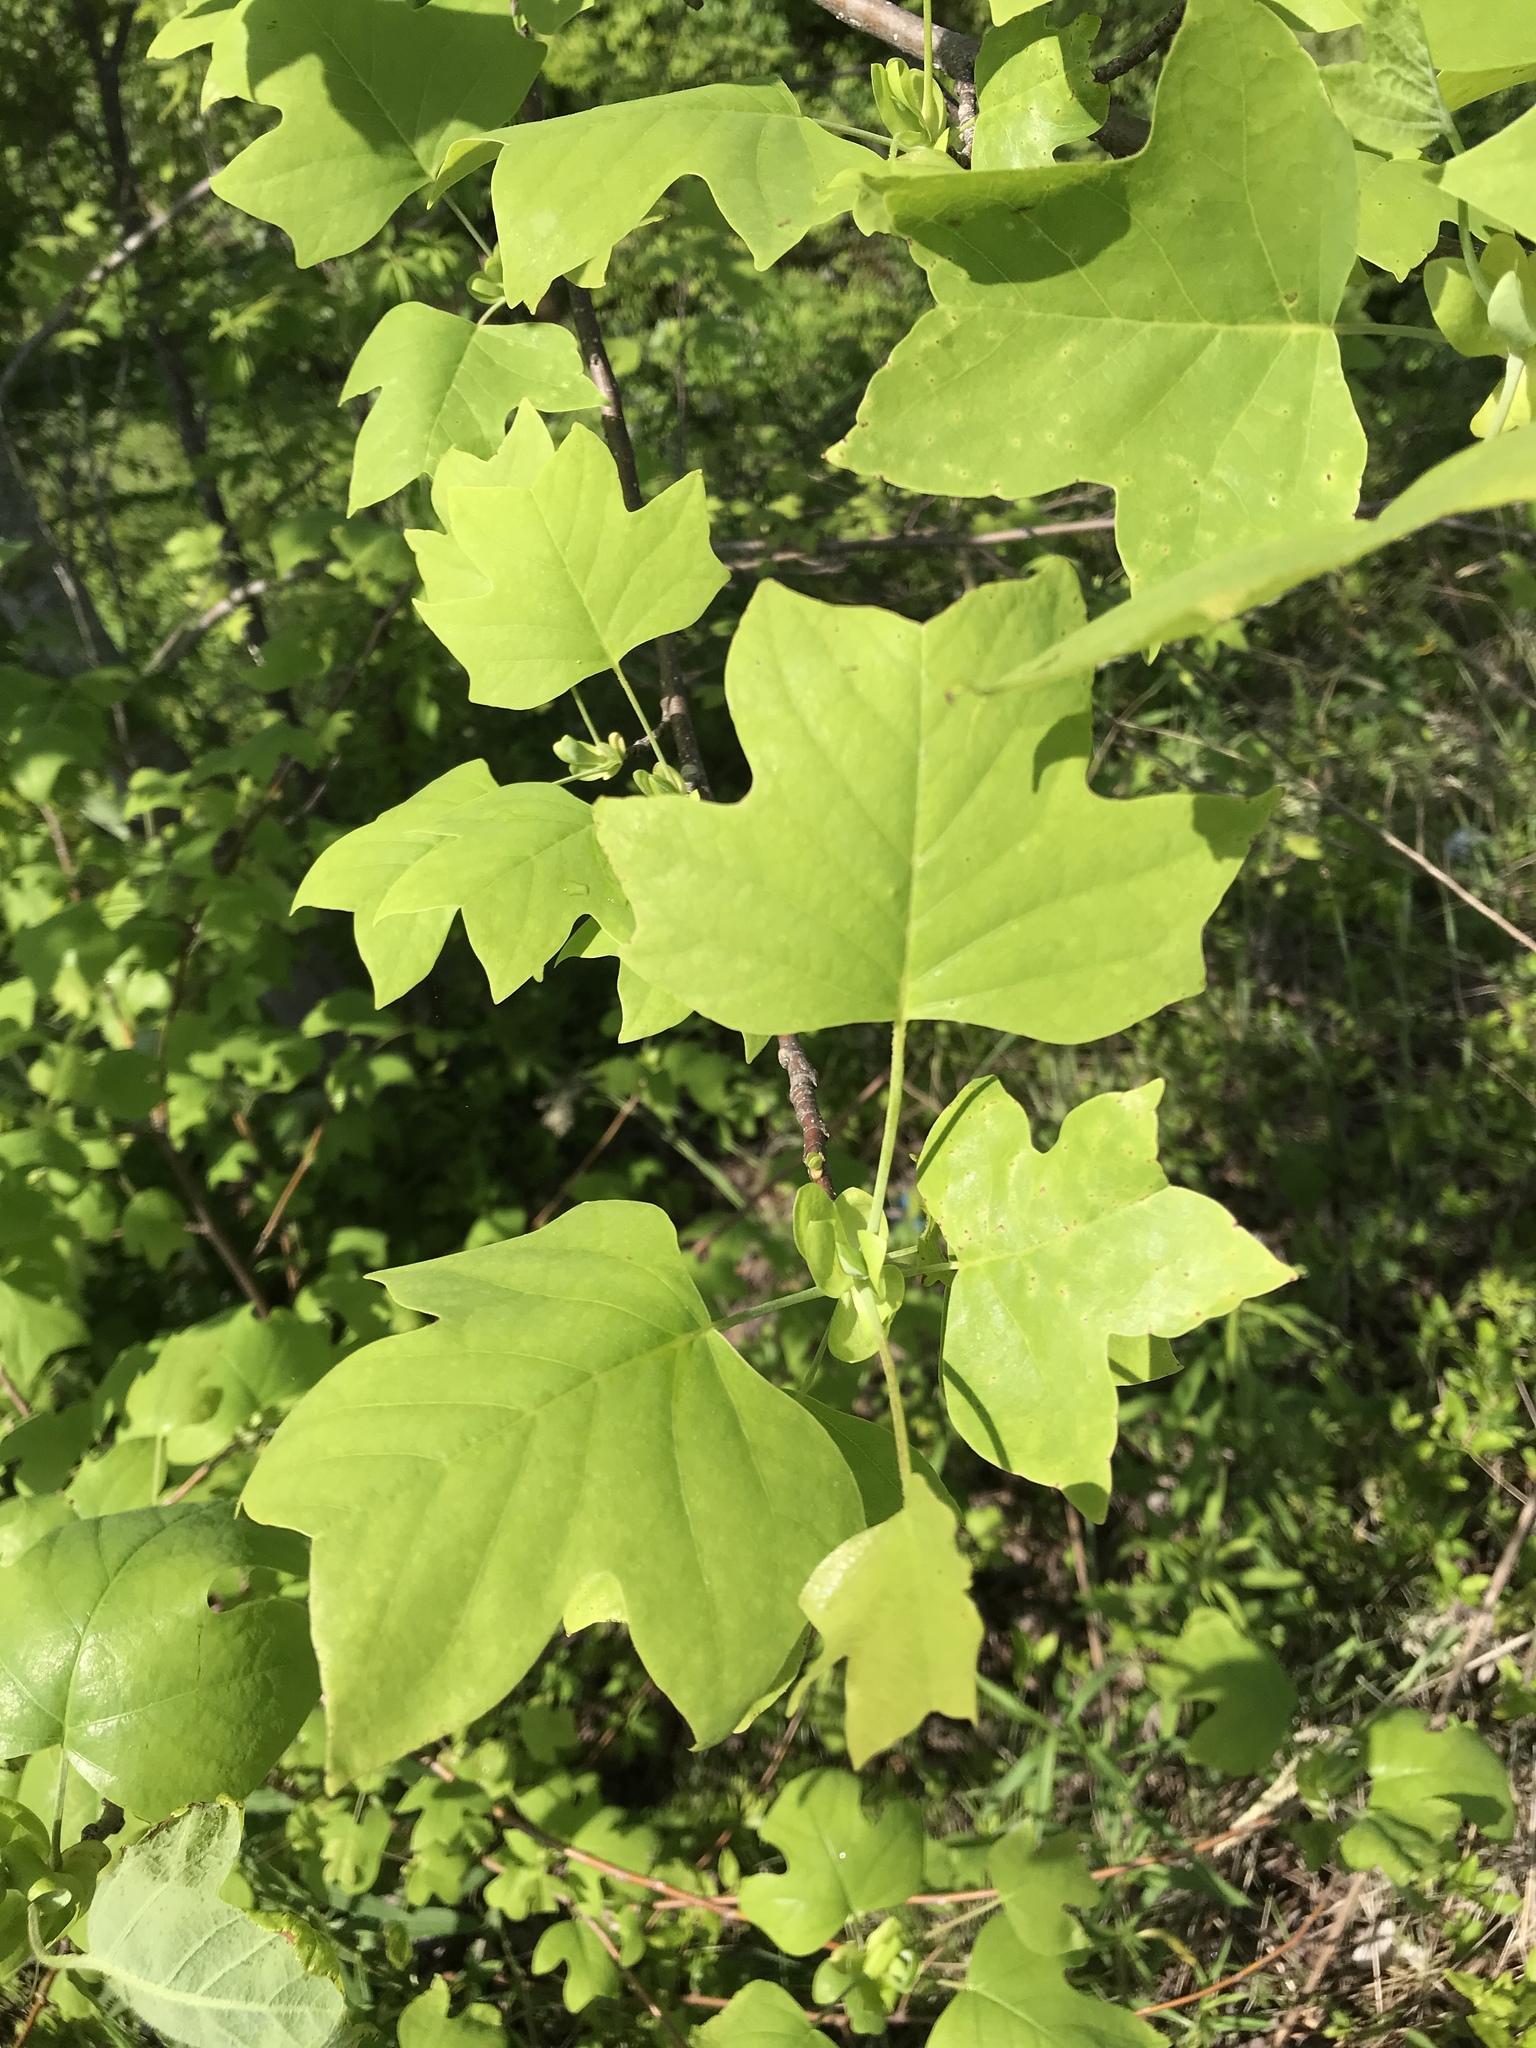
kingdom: Plantae
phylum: Tracheophyta
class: Magnoliopsida
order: Magnoliales
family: Magnoliaceae
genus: Liriodendron
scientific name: Liriodendron tulipifera
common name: Tulip tree
